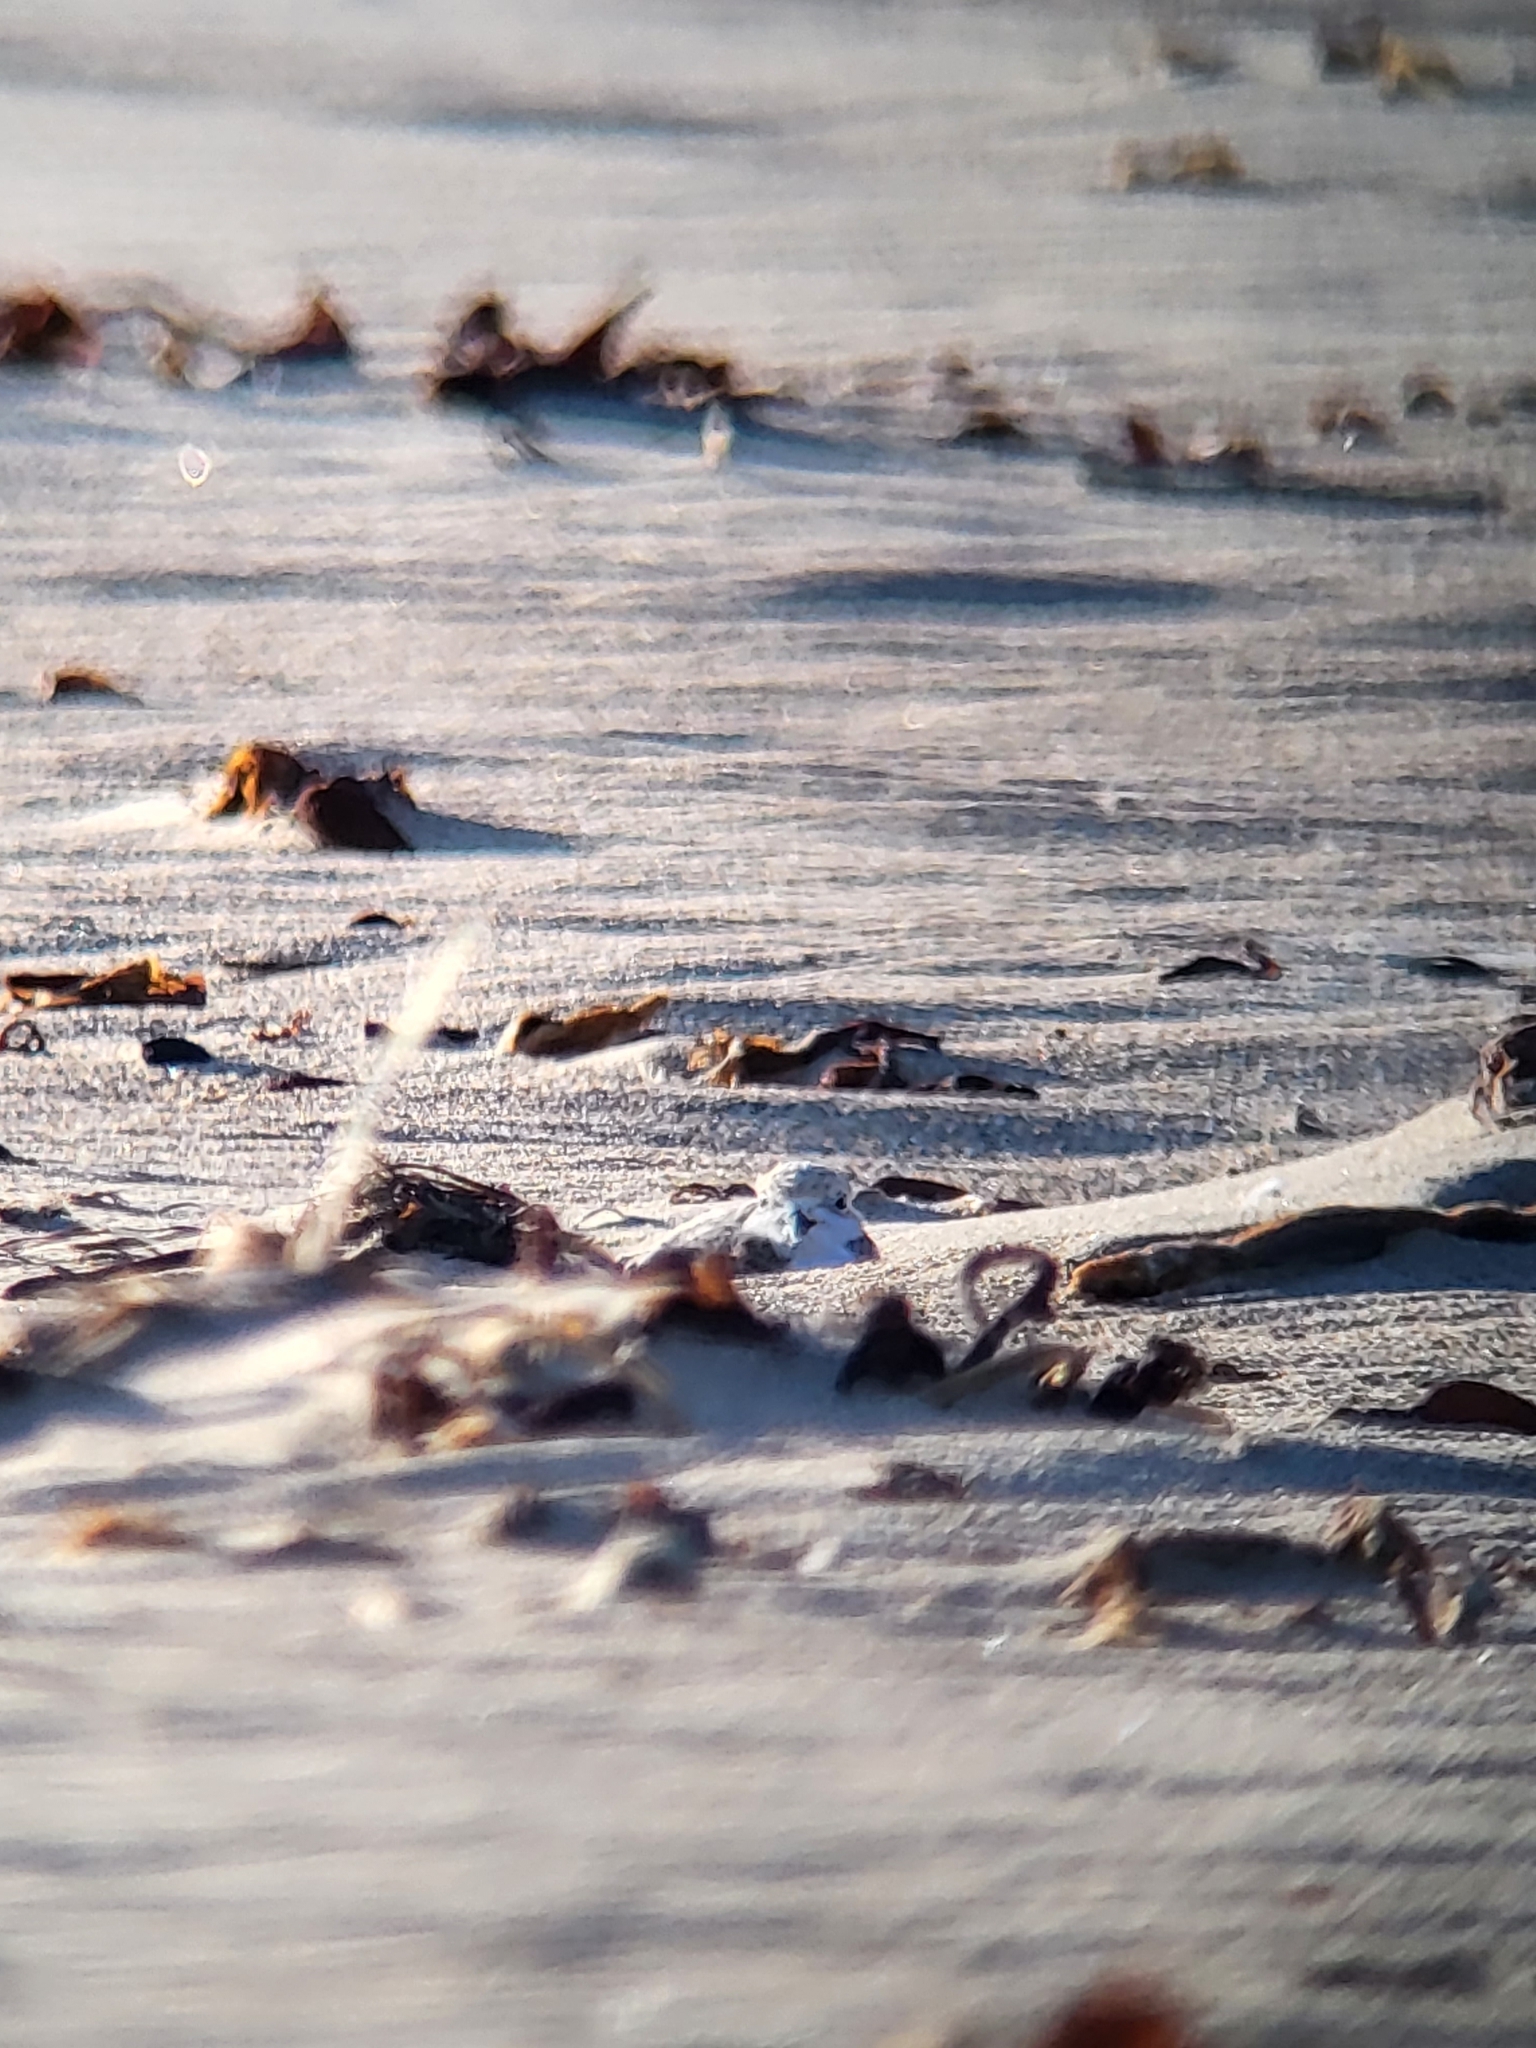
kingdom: Animalia
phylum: Chordata
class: Aves
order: Charadriiformes
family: Charadriidae
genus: Anarhynchus
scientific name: Anarhynchus
